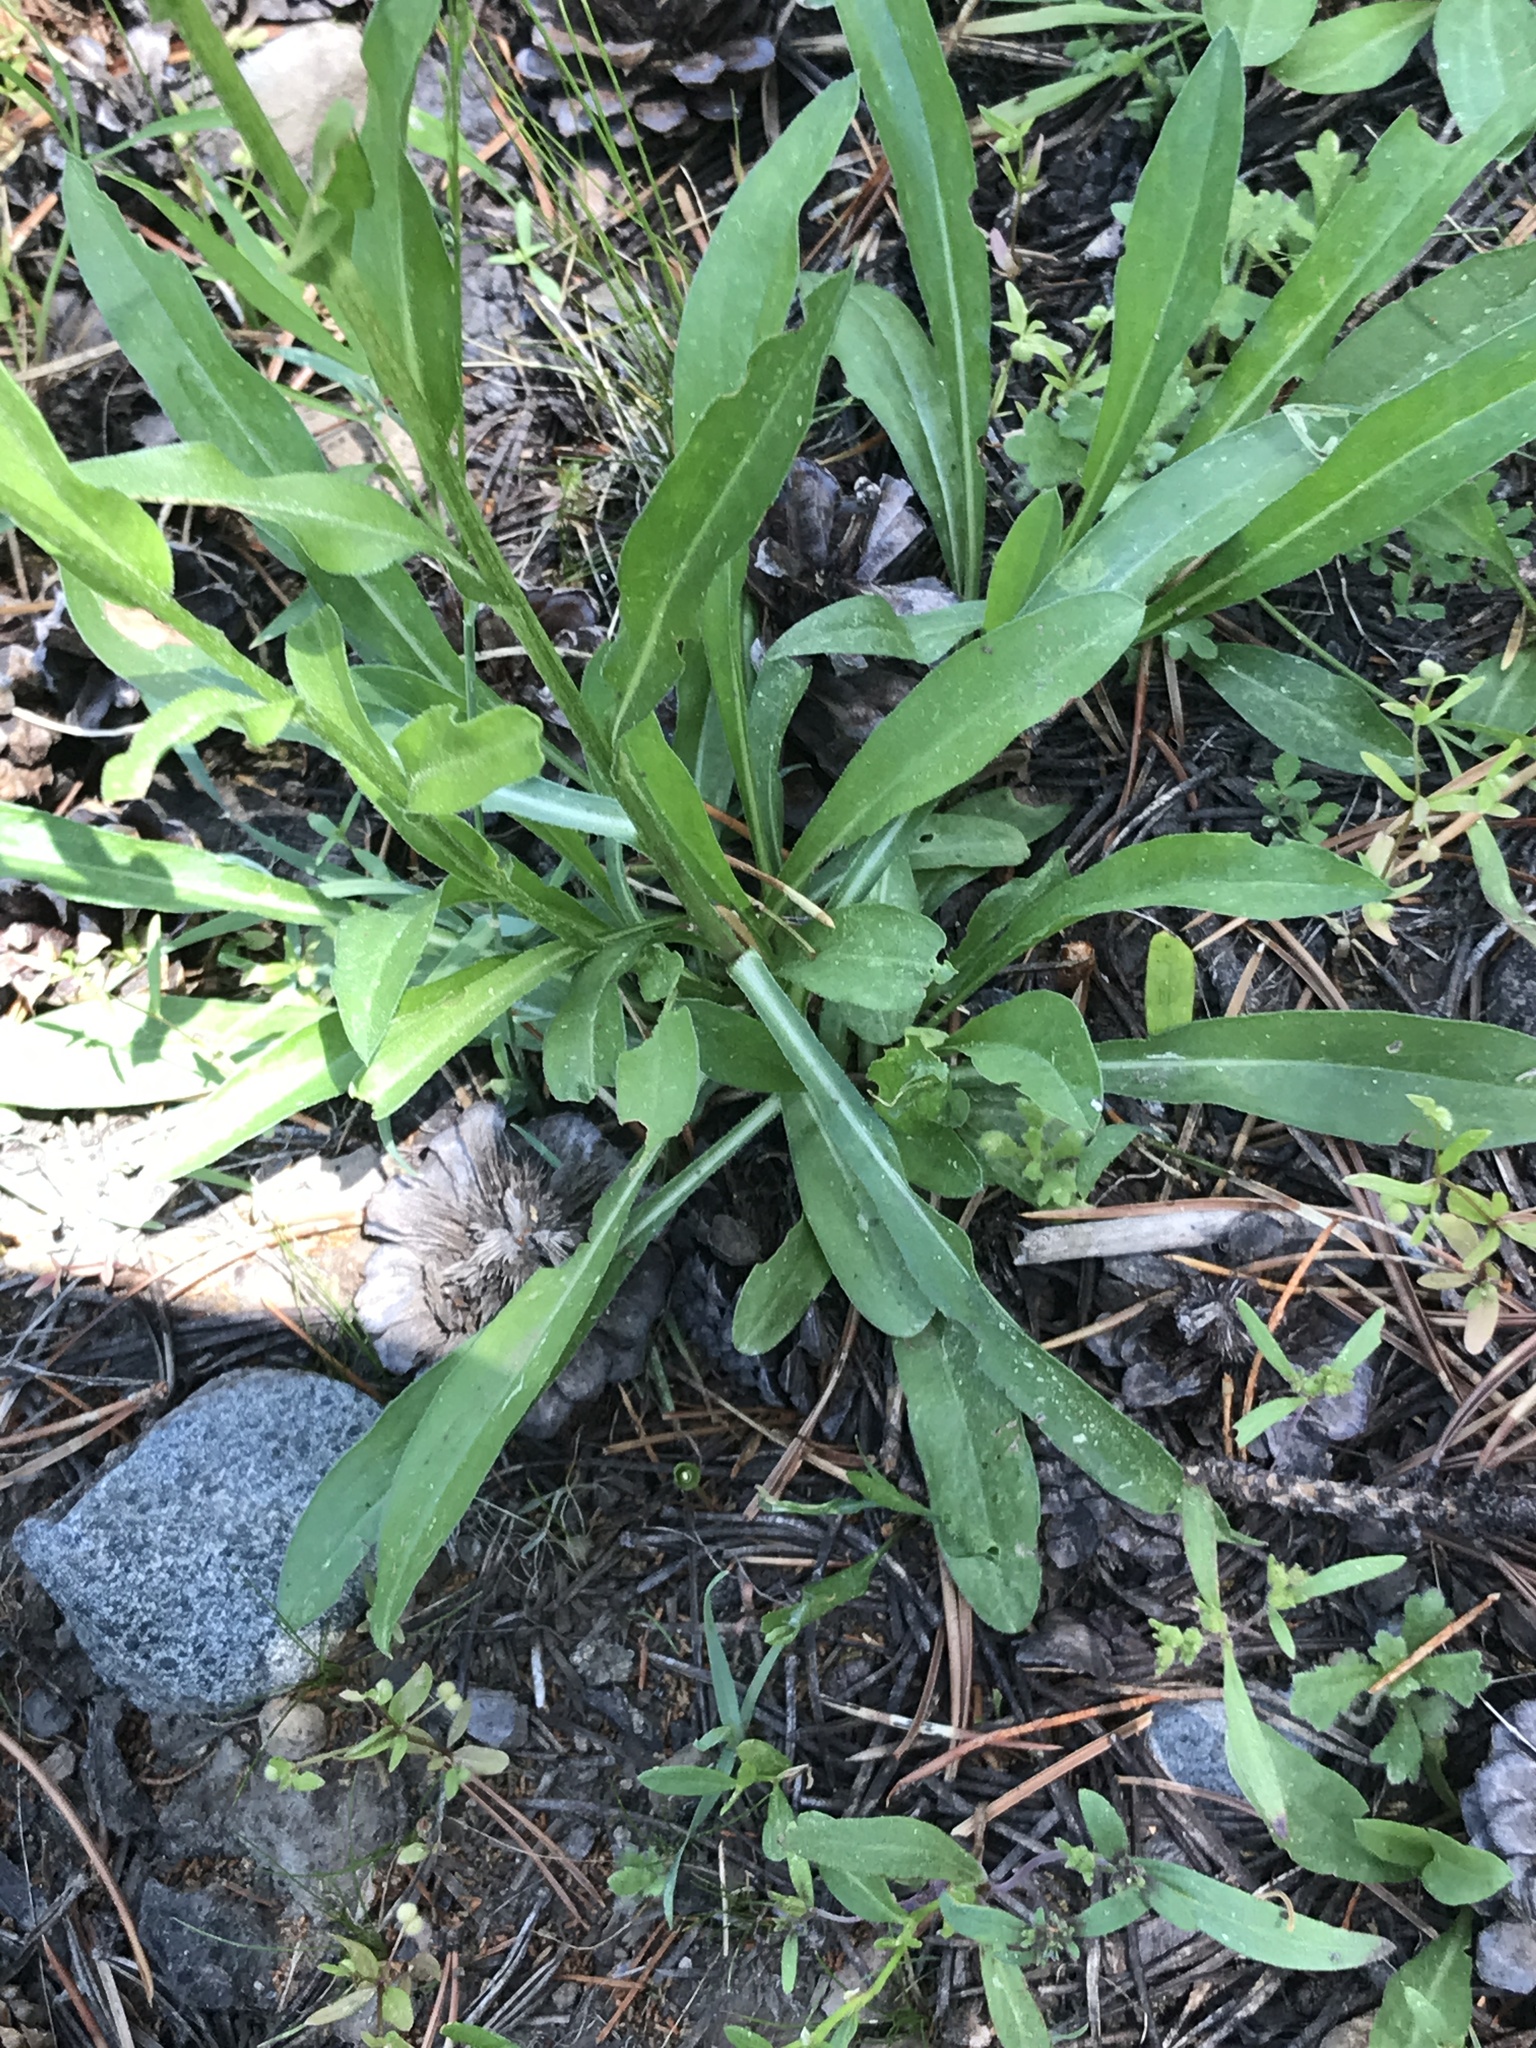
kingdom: Plantae
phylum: Tracheophyta
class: Magnoliopsida
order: Asterales
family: Asteraceae
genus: Erigeron
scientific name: Erigeron glacialis
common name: Subalpine fleabane
